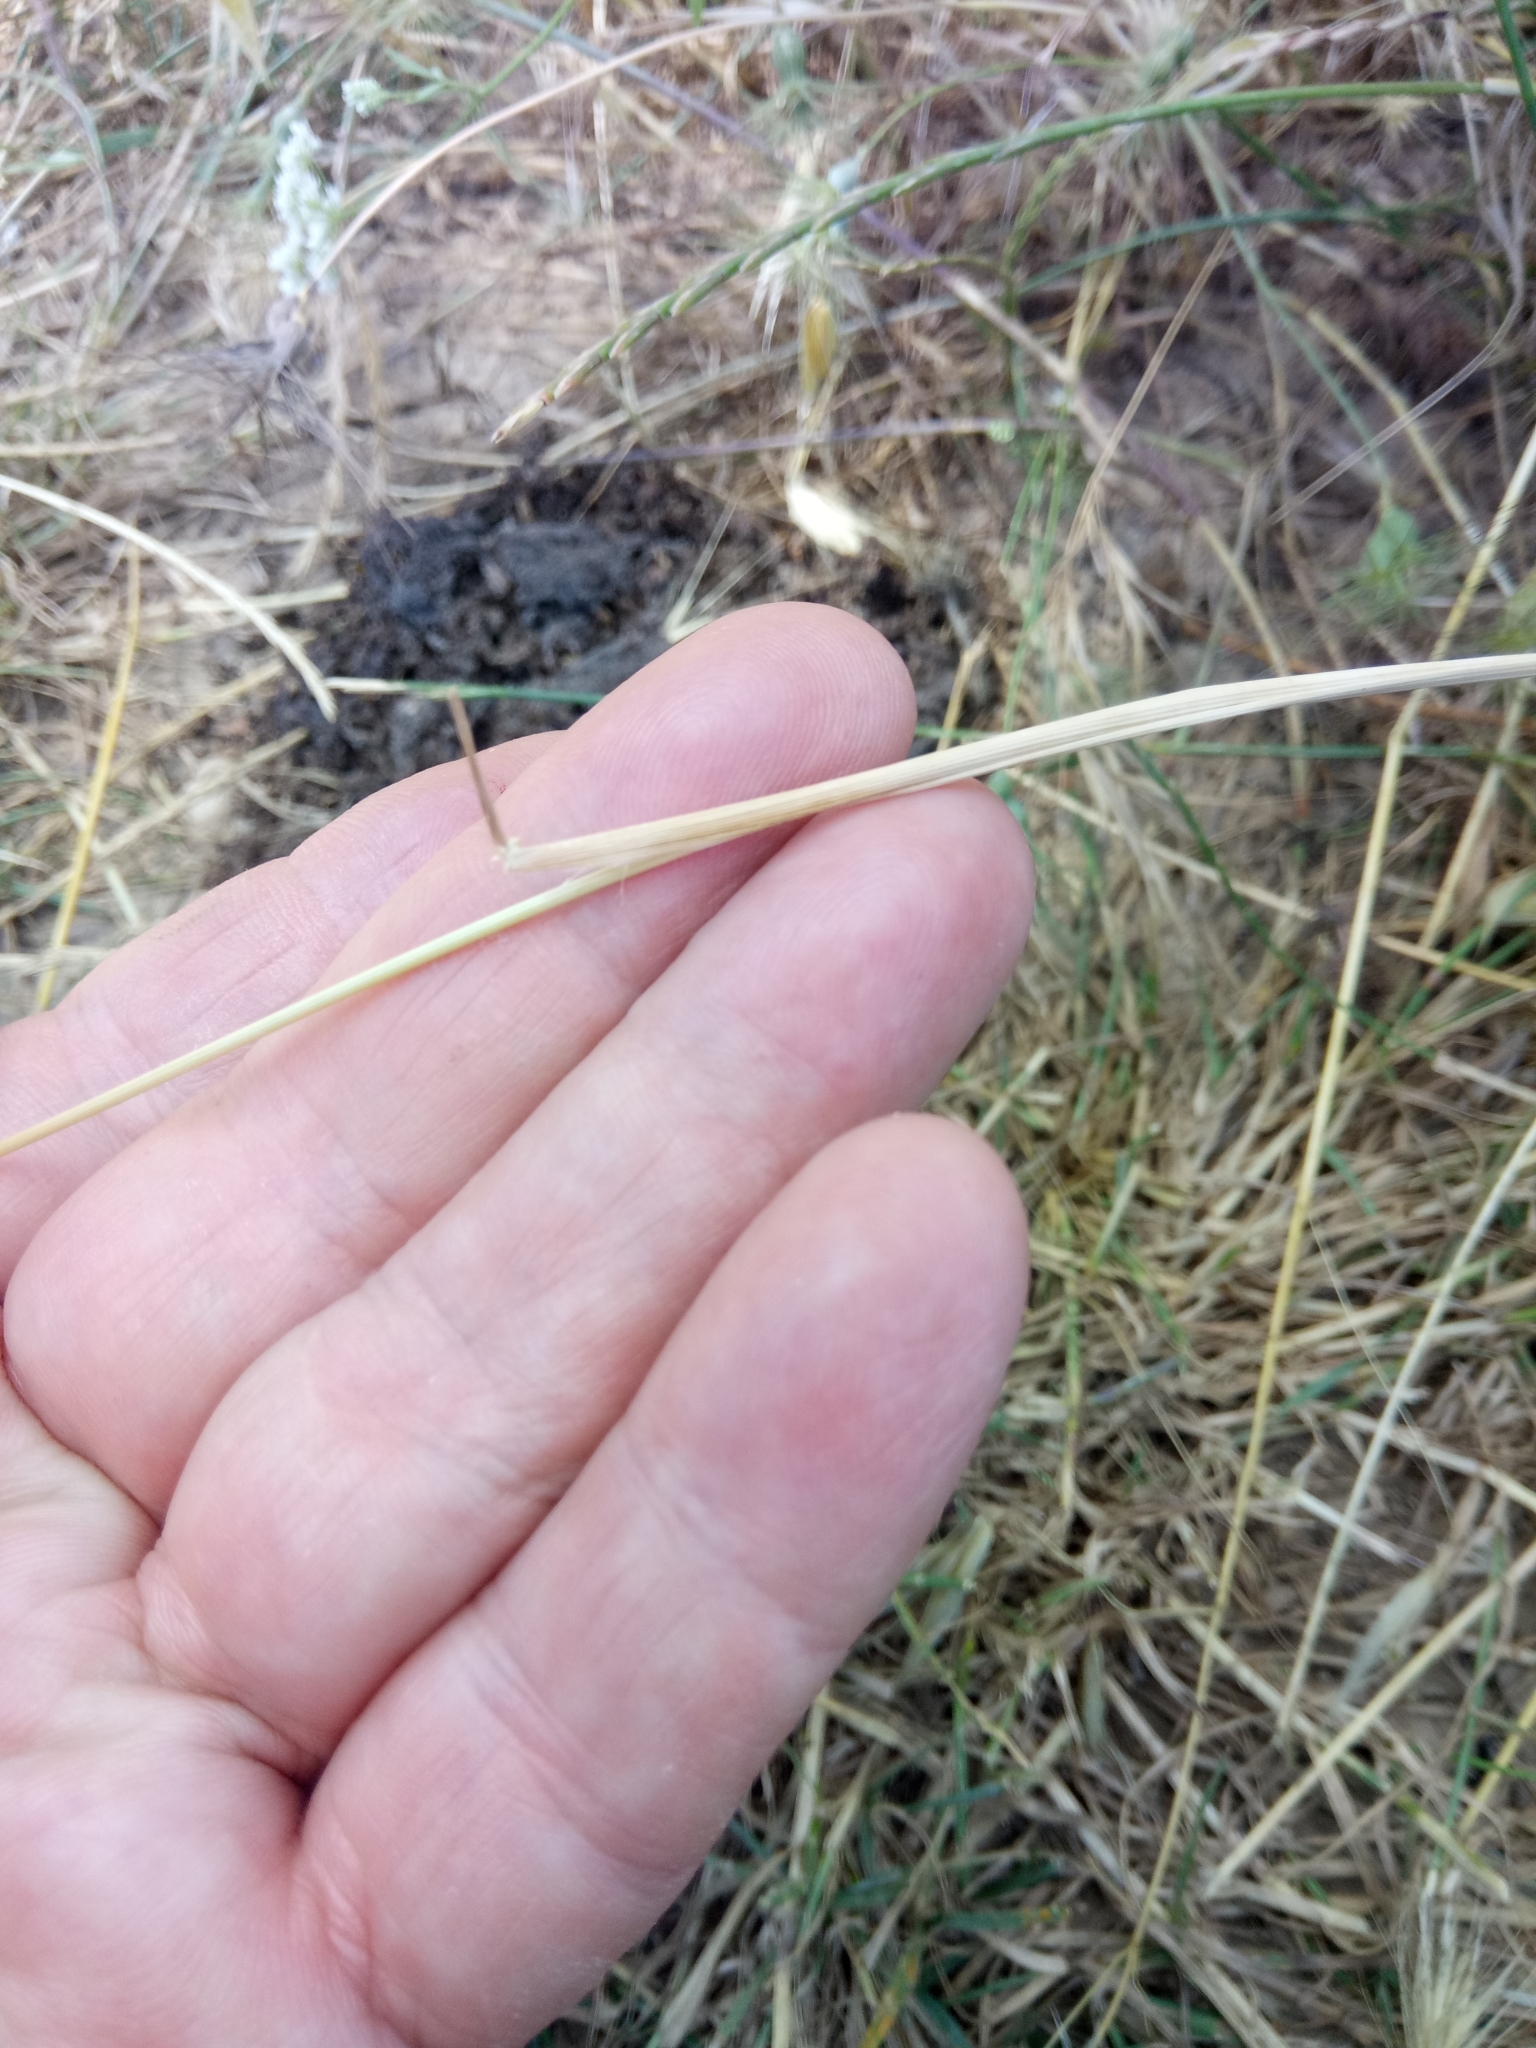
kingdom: Plantae
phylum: Tracheophyta
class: Liliopsida
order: Poales
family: Poaceae
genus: Avena
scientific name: Avena sterilis
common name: Animated oat
